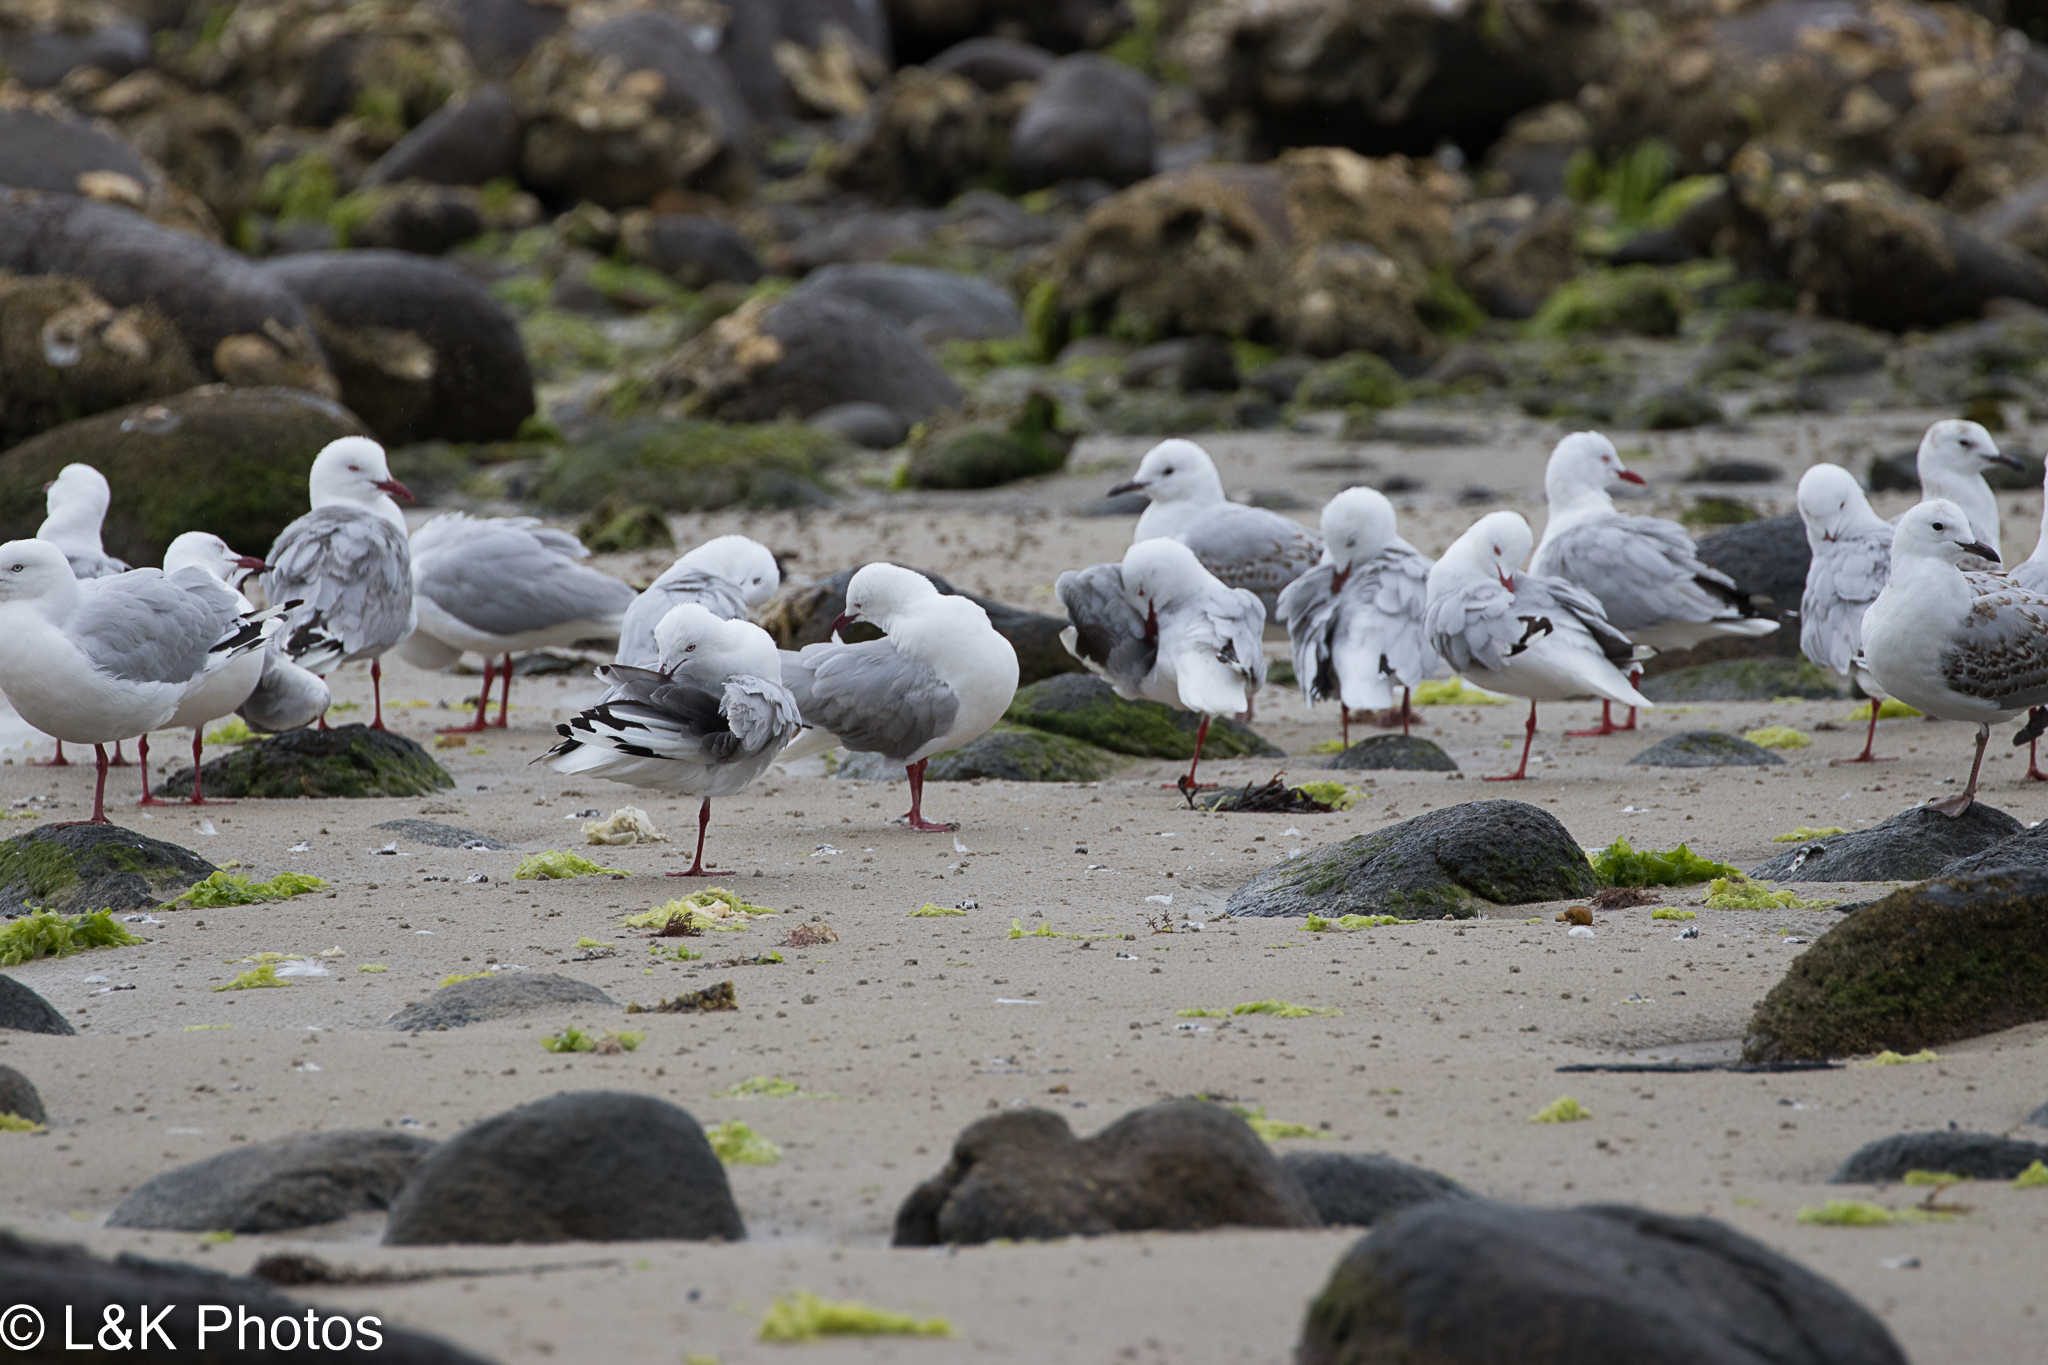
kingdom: Animalia
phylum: Chordata
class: Aves
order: Charadriiformes
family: Laridae
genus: Chroicocephalus
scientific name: Chroicocephalus novaehollandiae
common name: Silver gull
